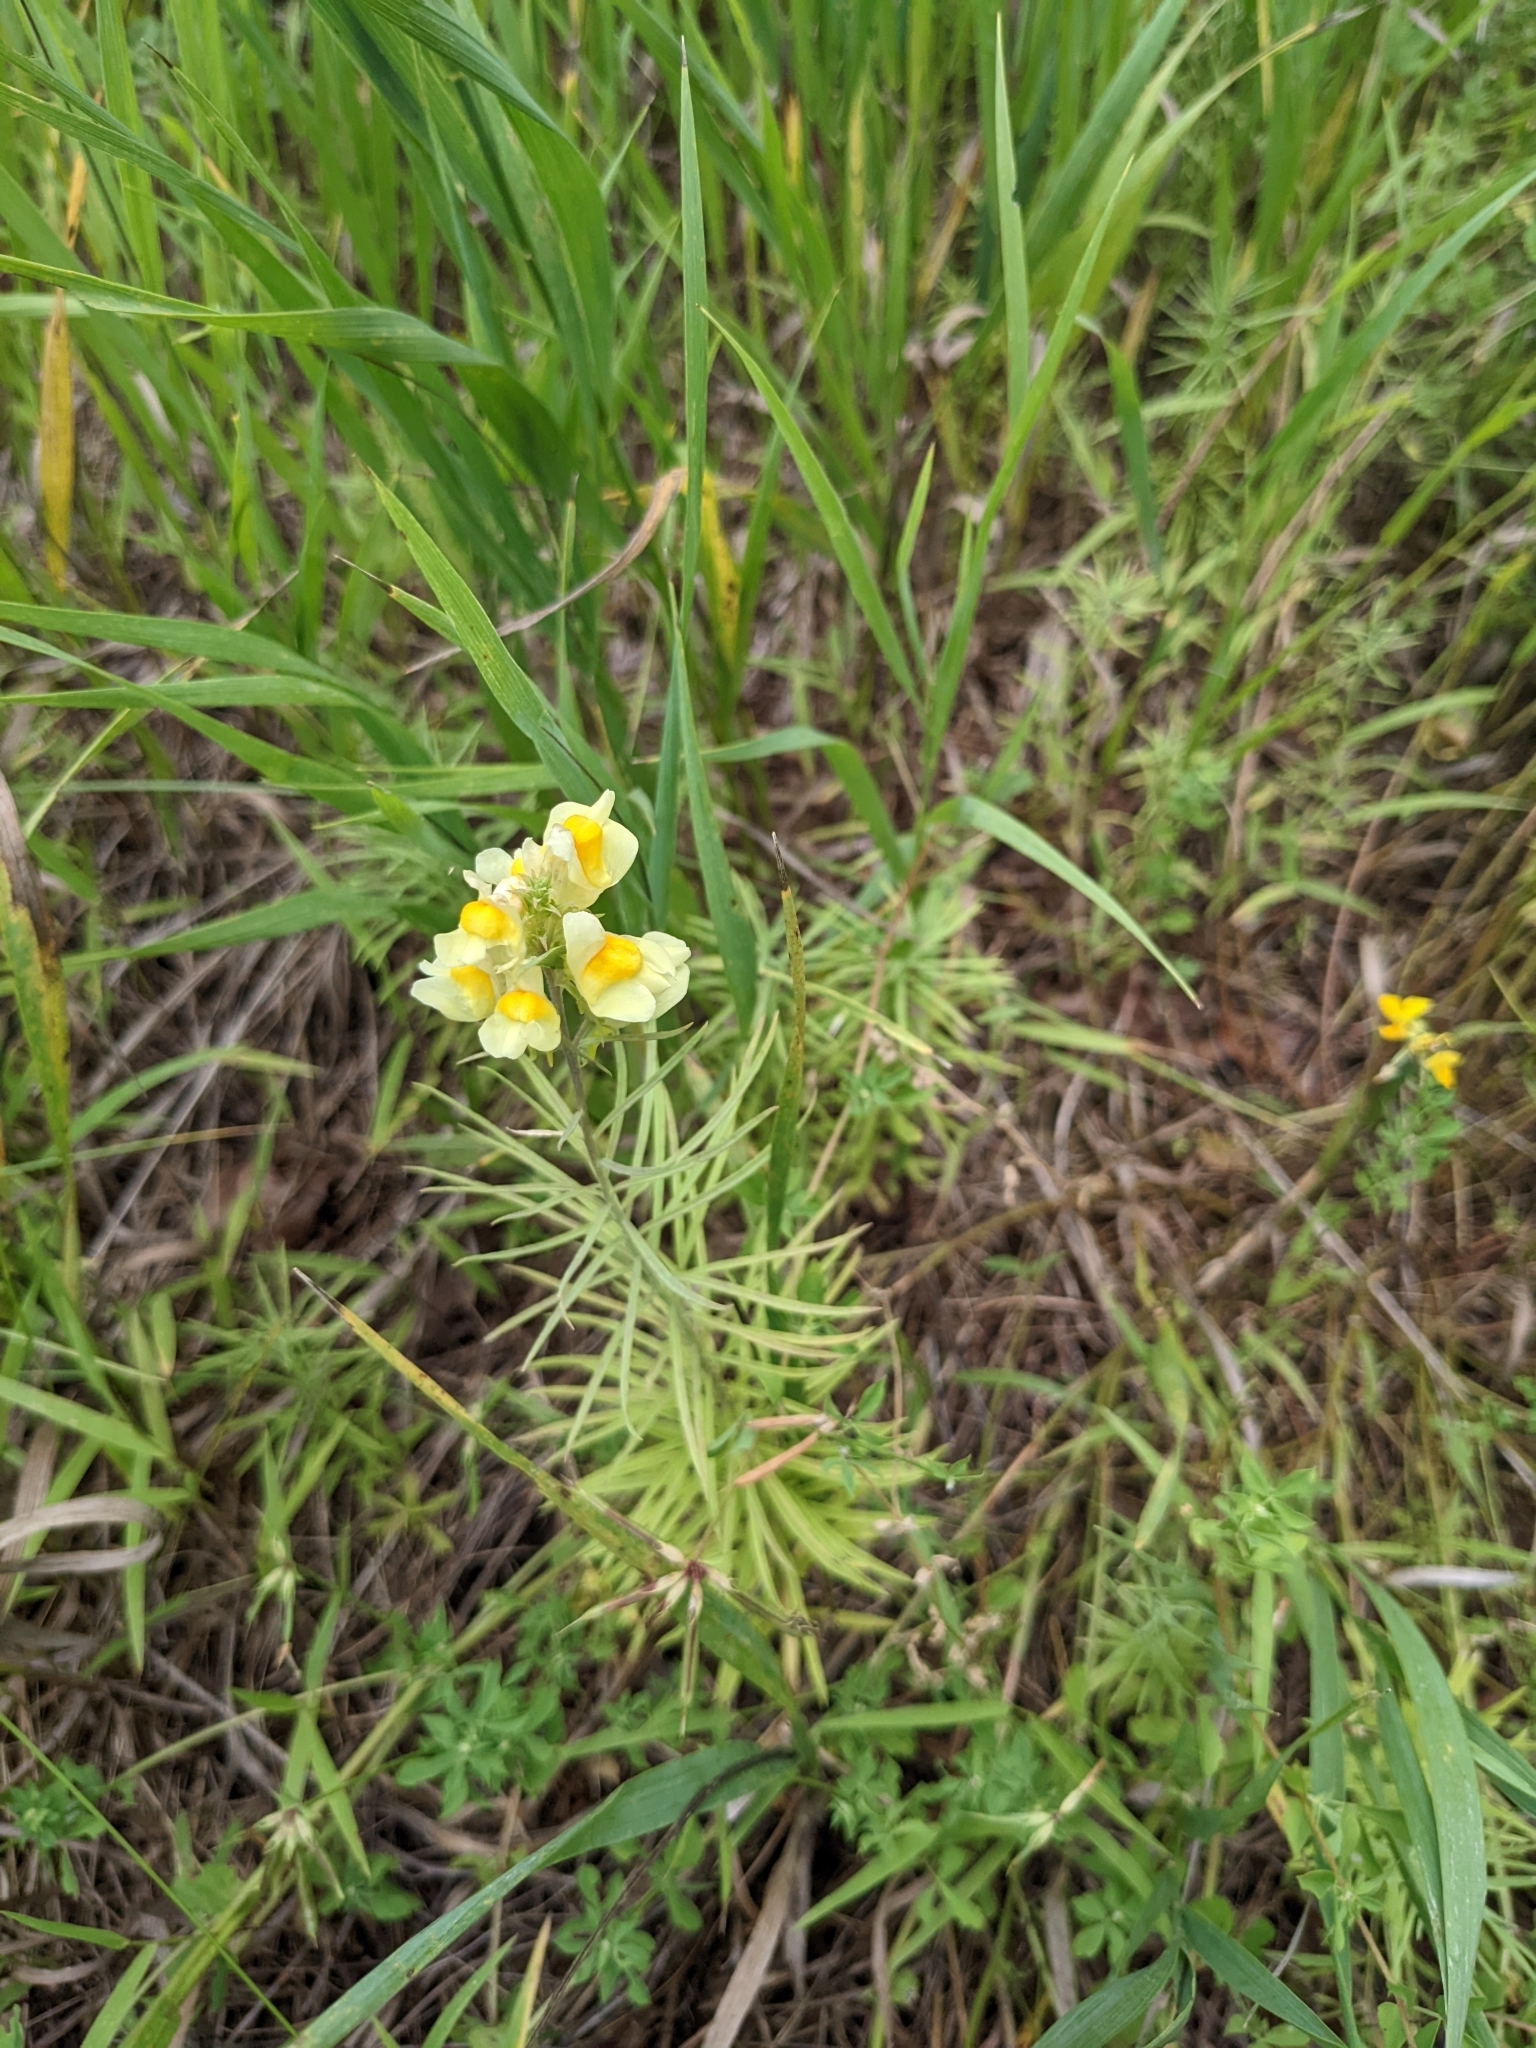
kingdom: Plantae
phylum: Tracheophyta
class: Magnoliopsida
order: Lamiales
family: Plantaginaceae
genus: Linaria
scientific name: Linaria vulgaris
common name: Butter and eggs
